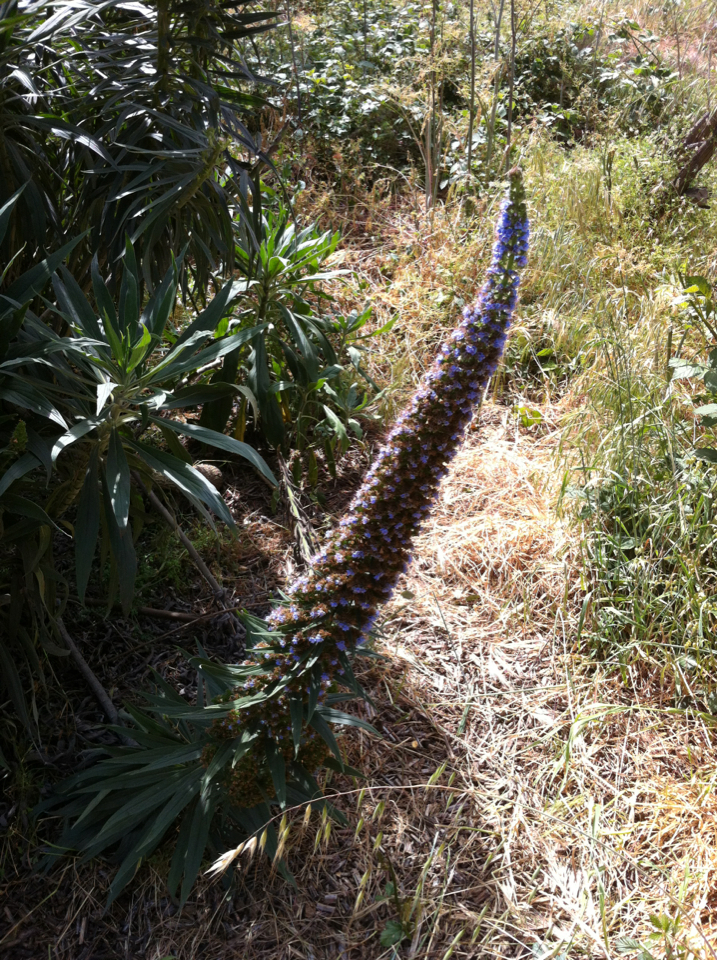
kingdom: Plantae
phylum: Tracheophyta
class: Magnoliopsida
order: Boraginales
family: Boraginaceae
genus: Echium
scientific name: Echium candicans
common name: Pride of madeira
